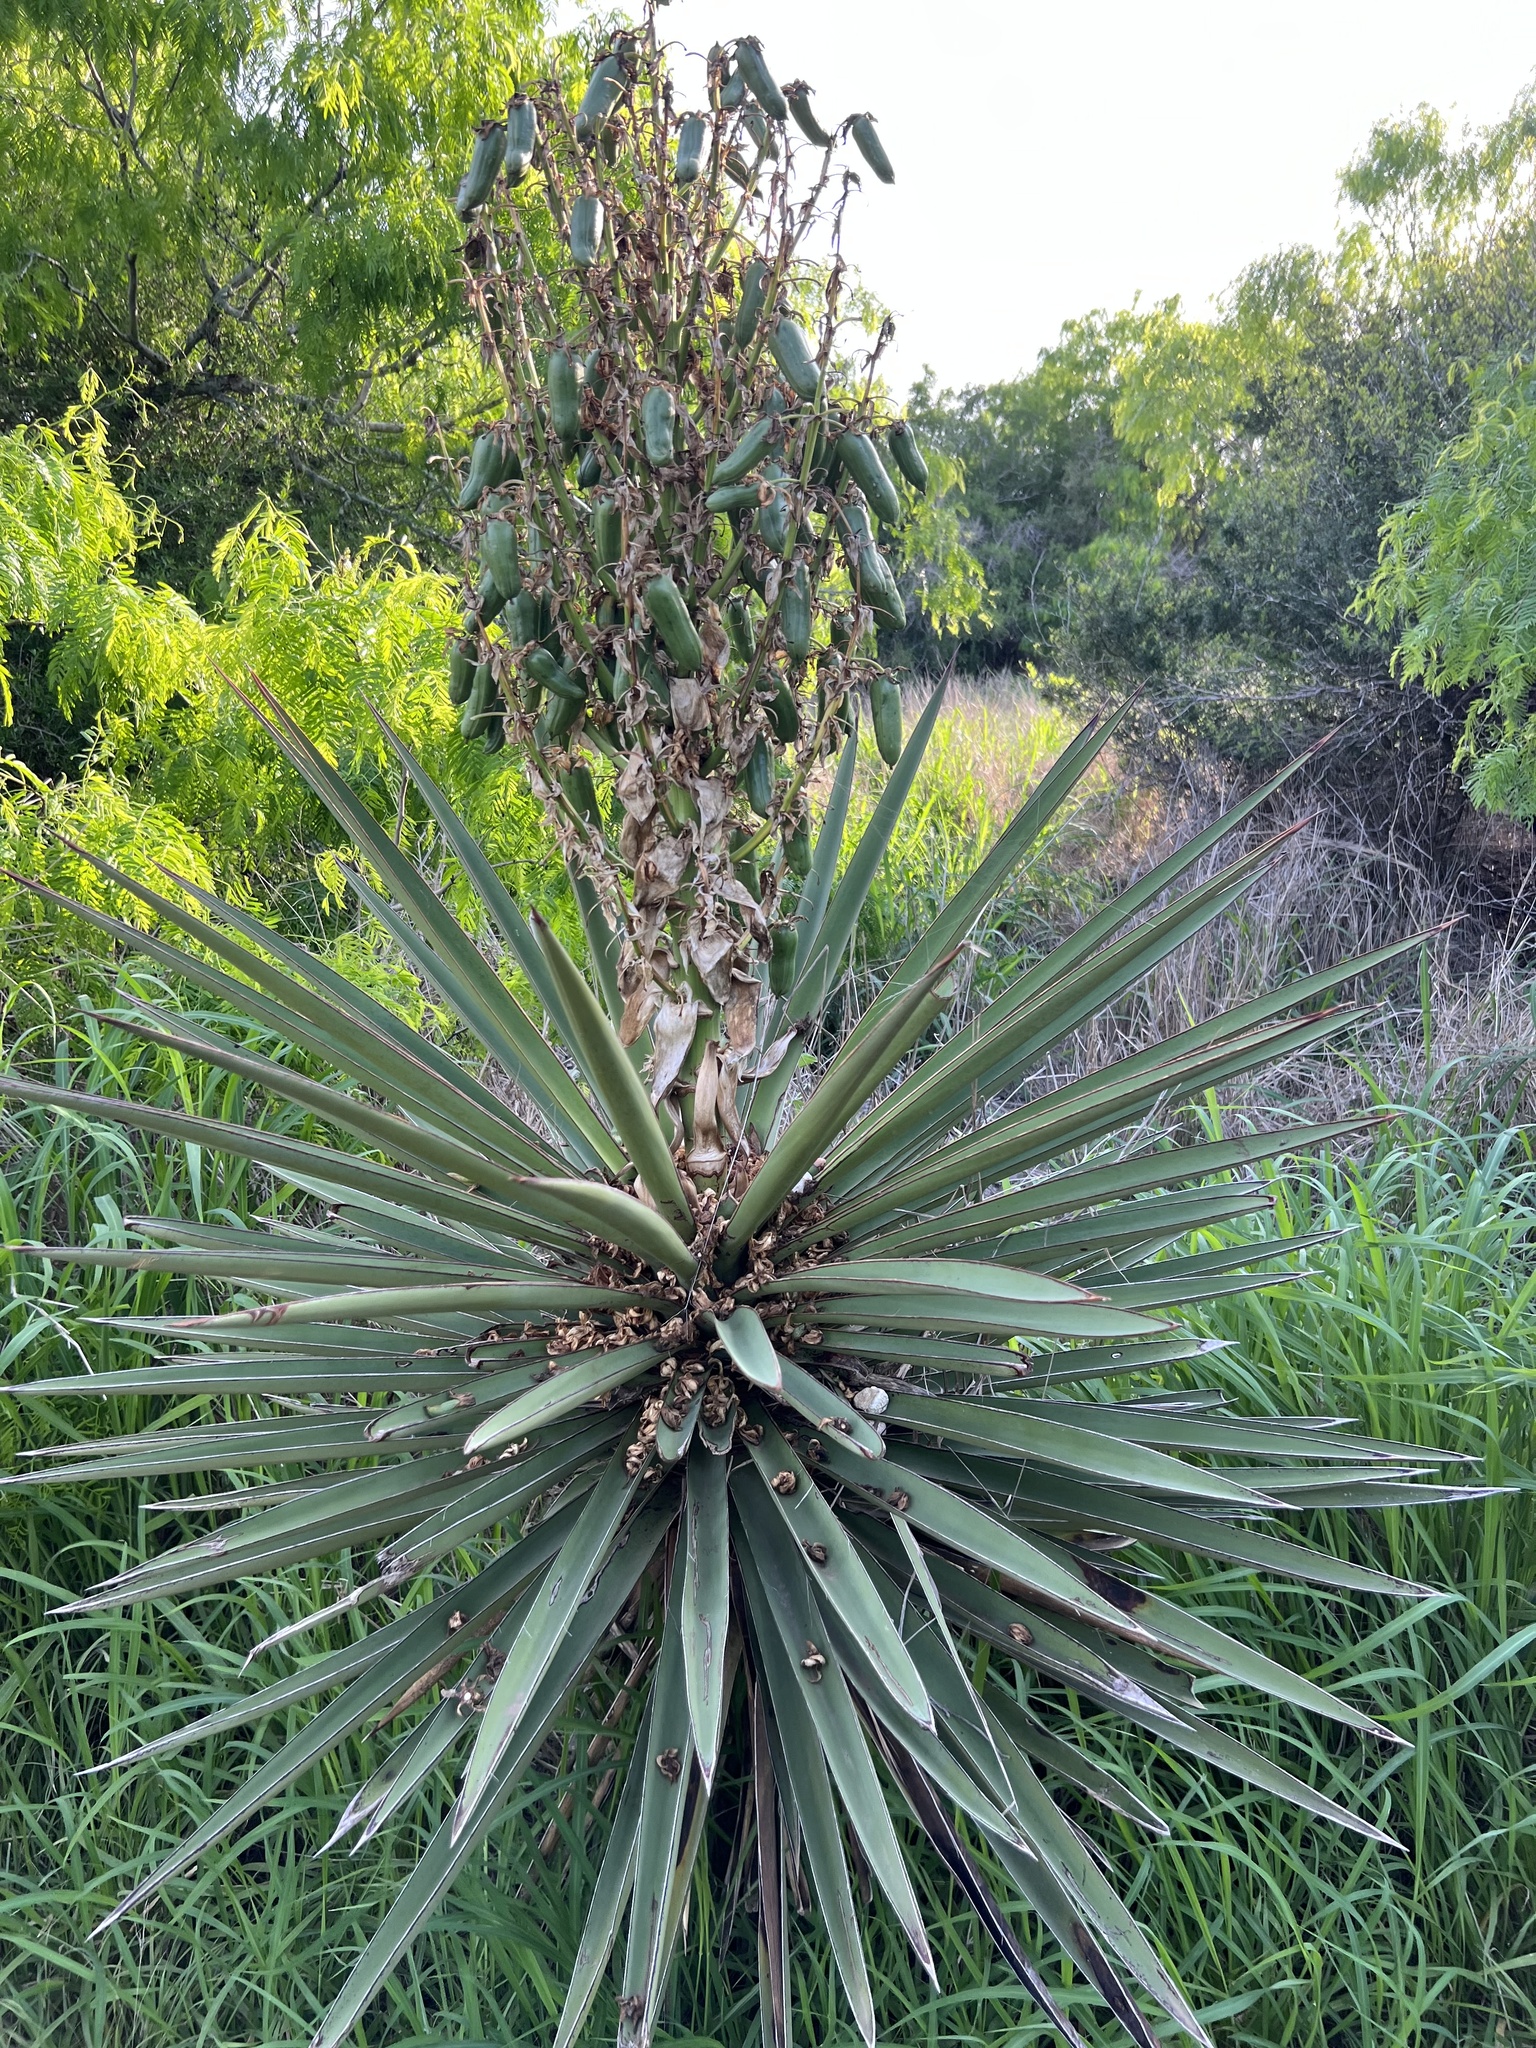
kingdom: Plantae
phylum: Tracheophyta
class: Liliopsida
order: Asparagales
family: Asparagaceae
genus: Yucca
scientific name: Yucca treculiana
